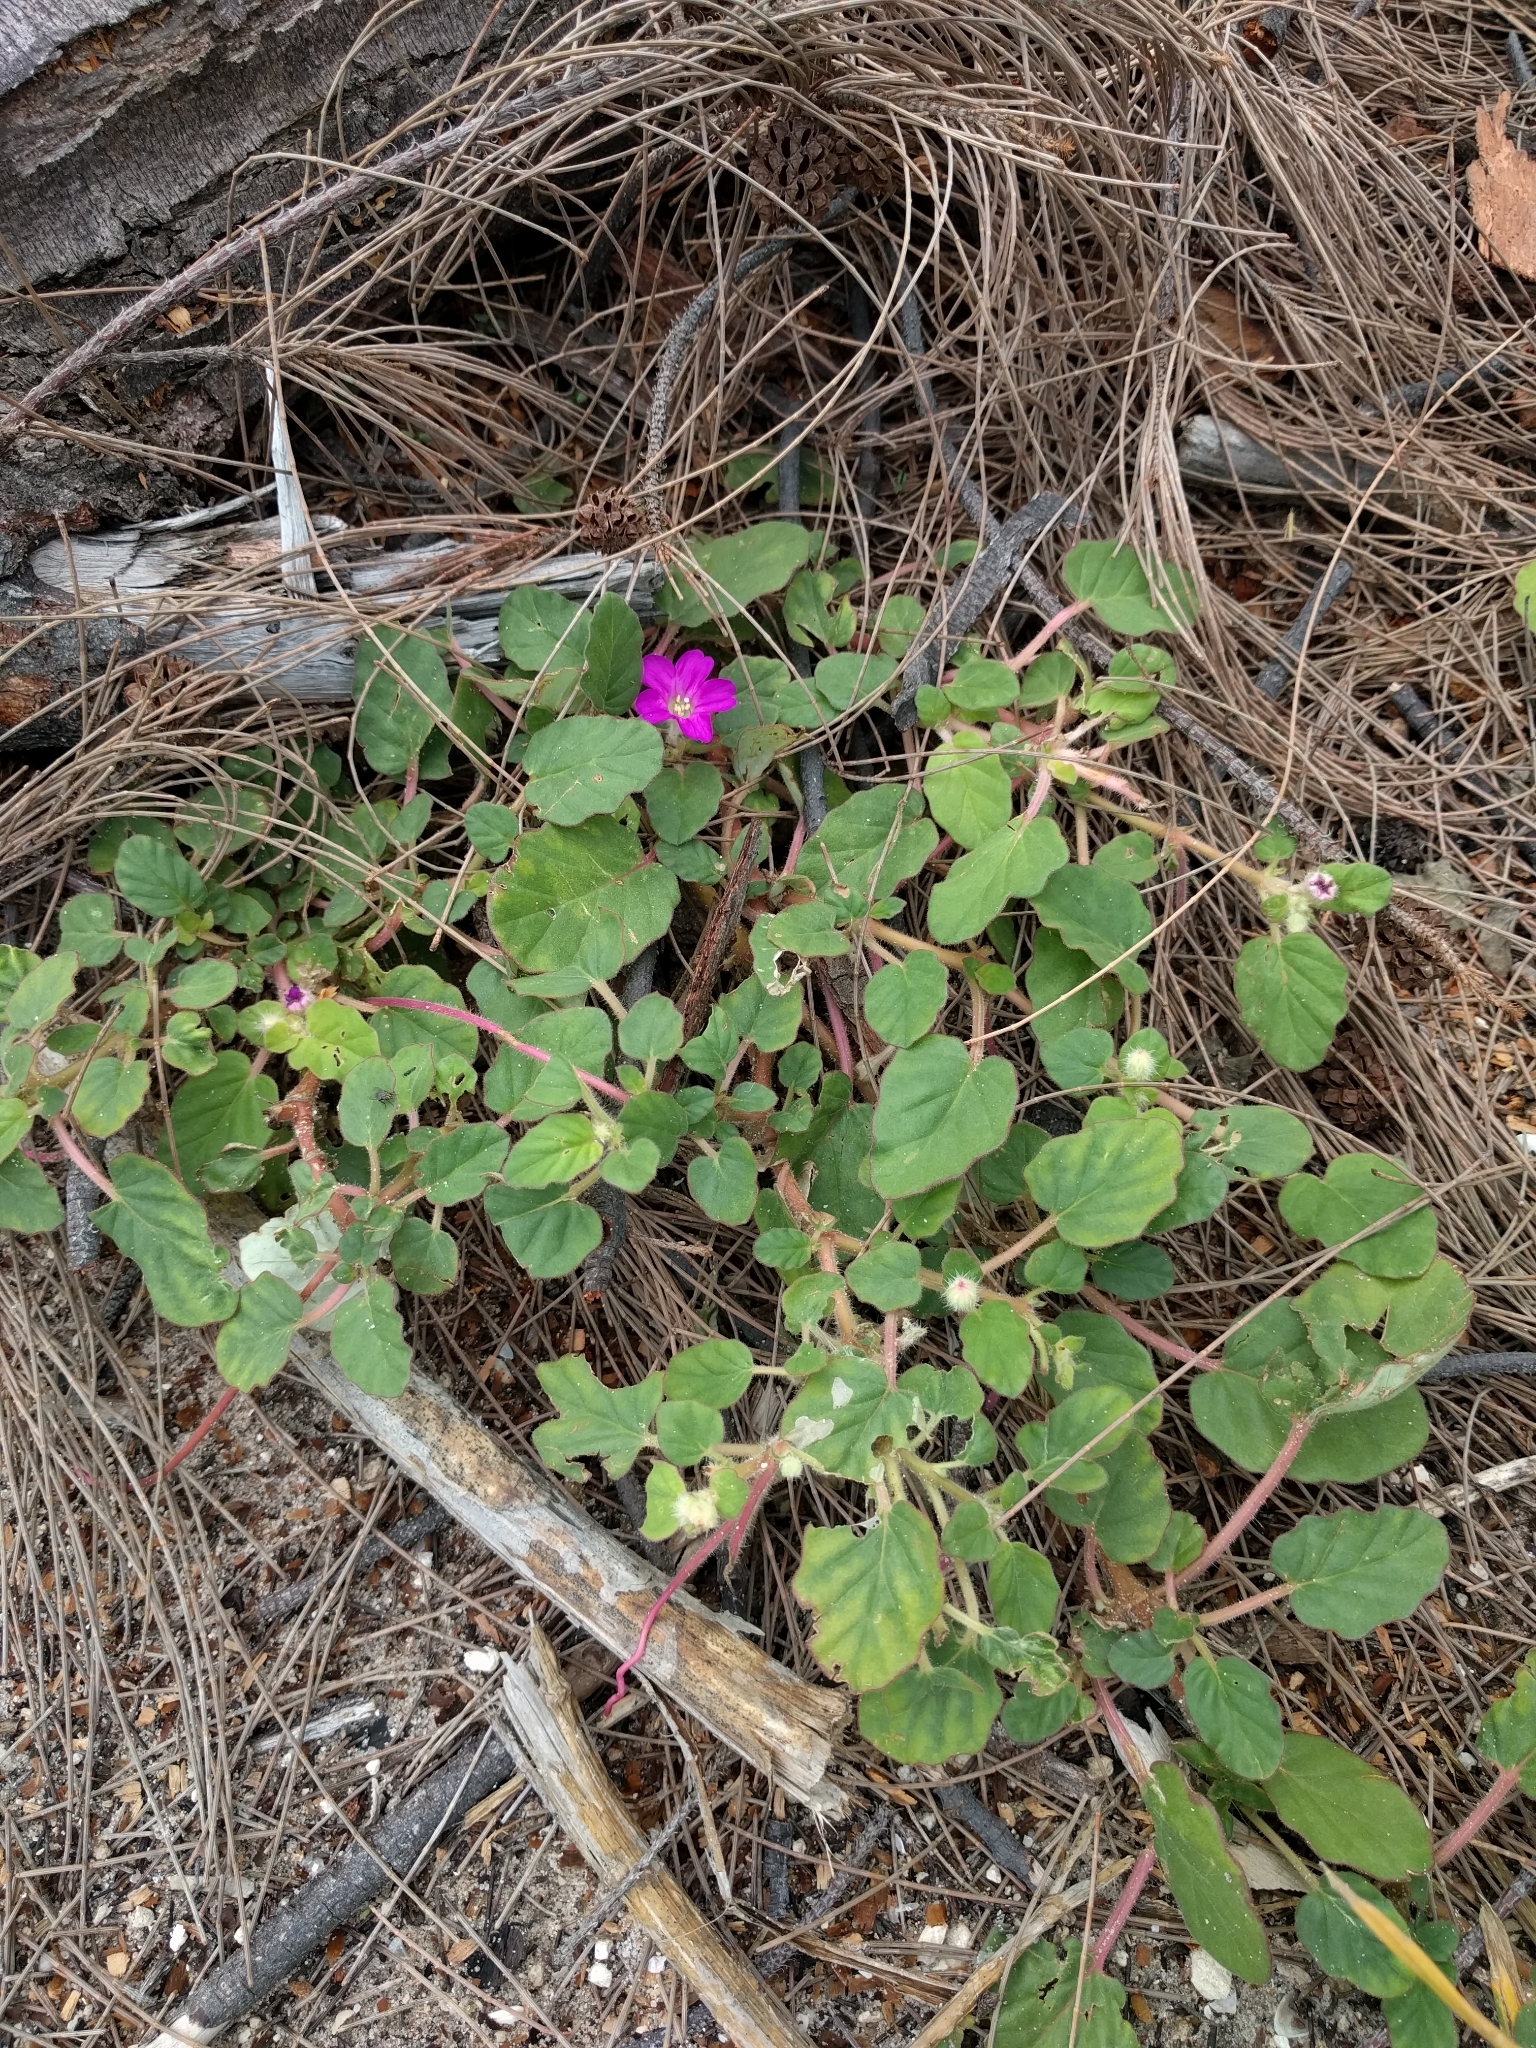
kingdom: Plantae
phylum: Tracheophyta
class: Magnoliopsida
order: Caryophyllales
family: Nyctaginaceae
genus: Okenia
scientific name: Okenia hypogaea
